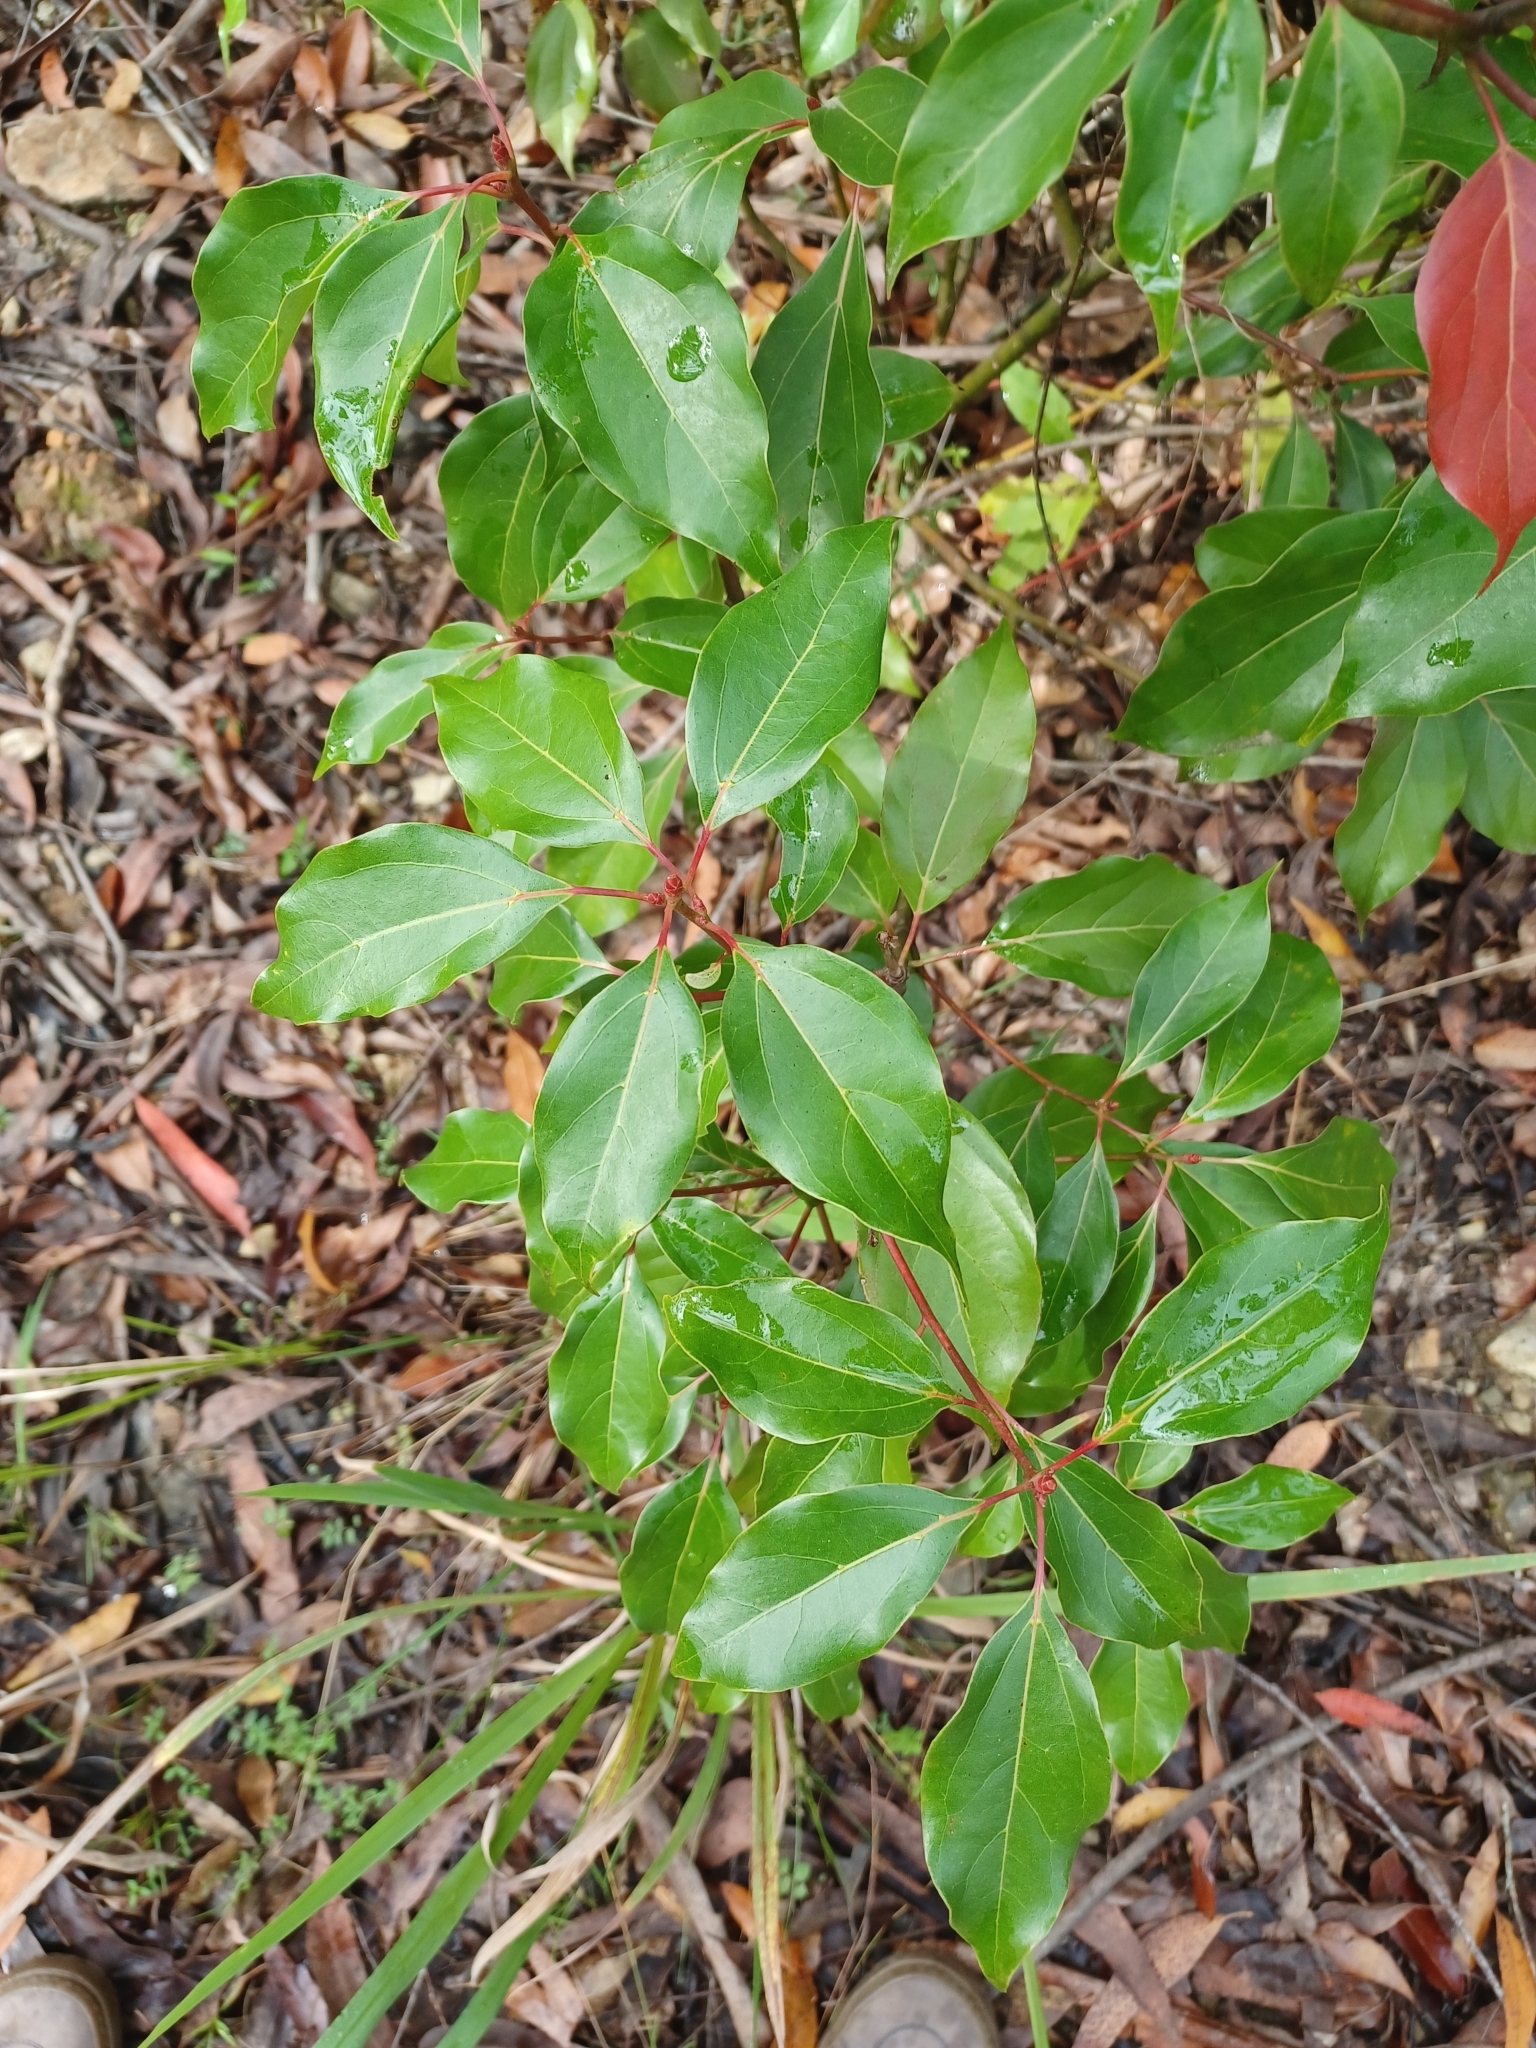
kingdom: Plantae
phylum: Tracheophyta
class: Magnoliopsida
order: Laurales
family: Lauraceae
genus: Cinnamomum
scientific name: Cinnamomum camphora
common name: Camphortree
